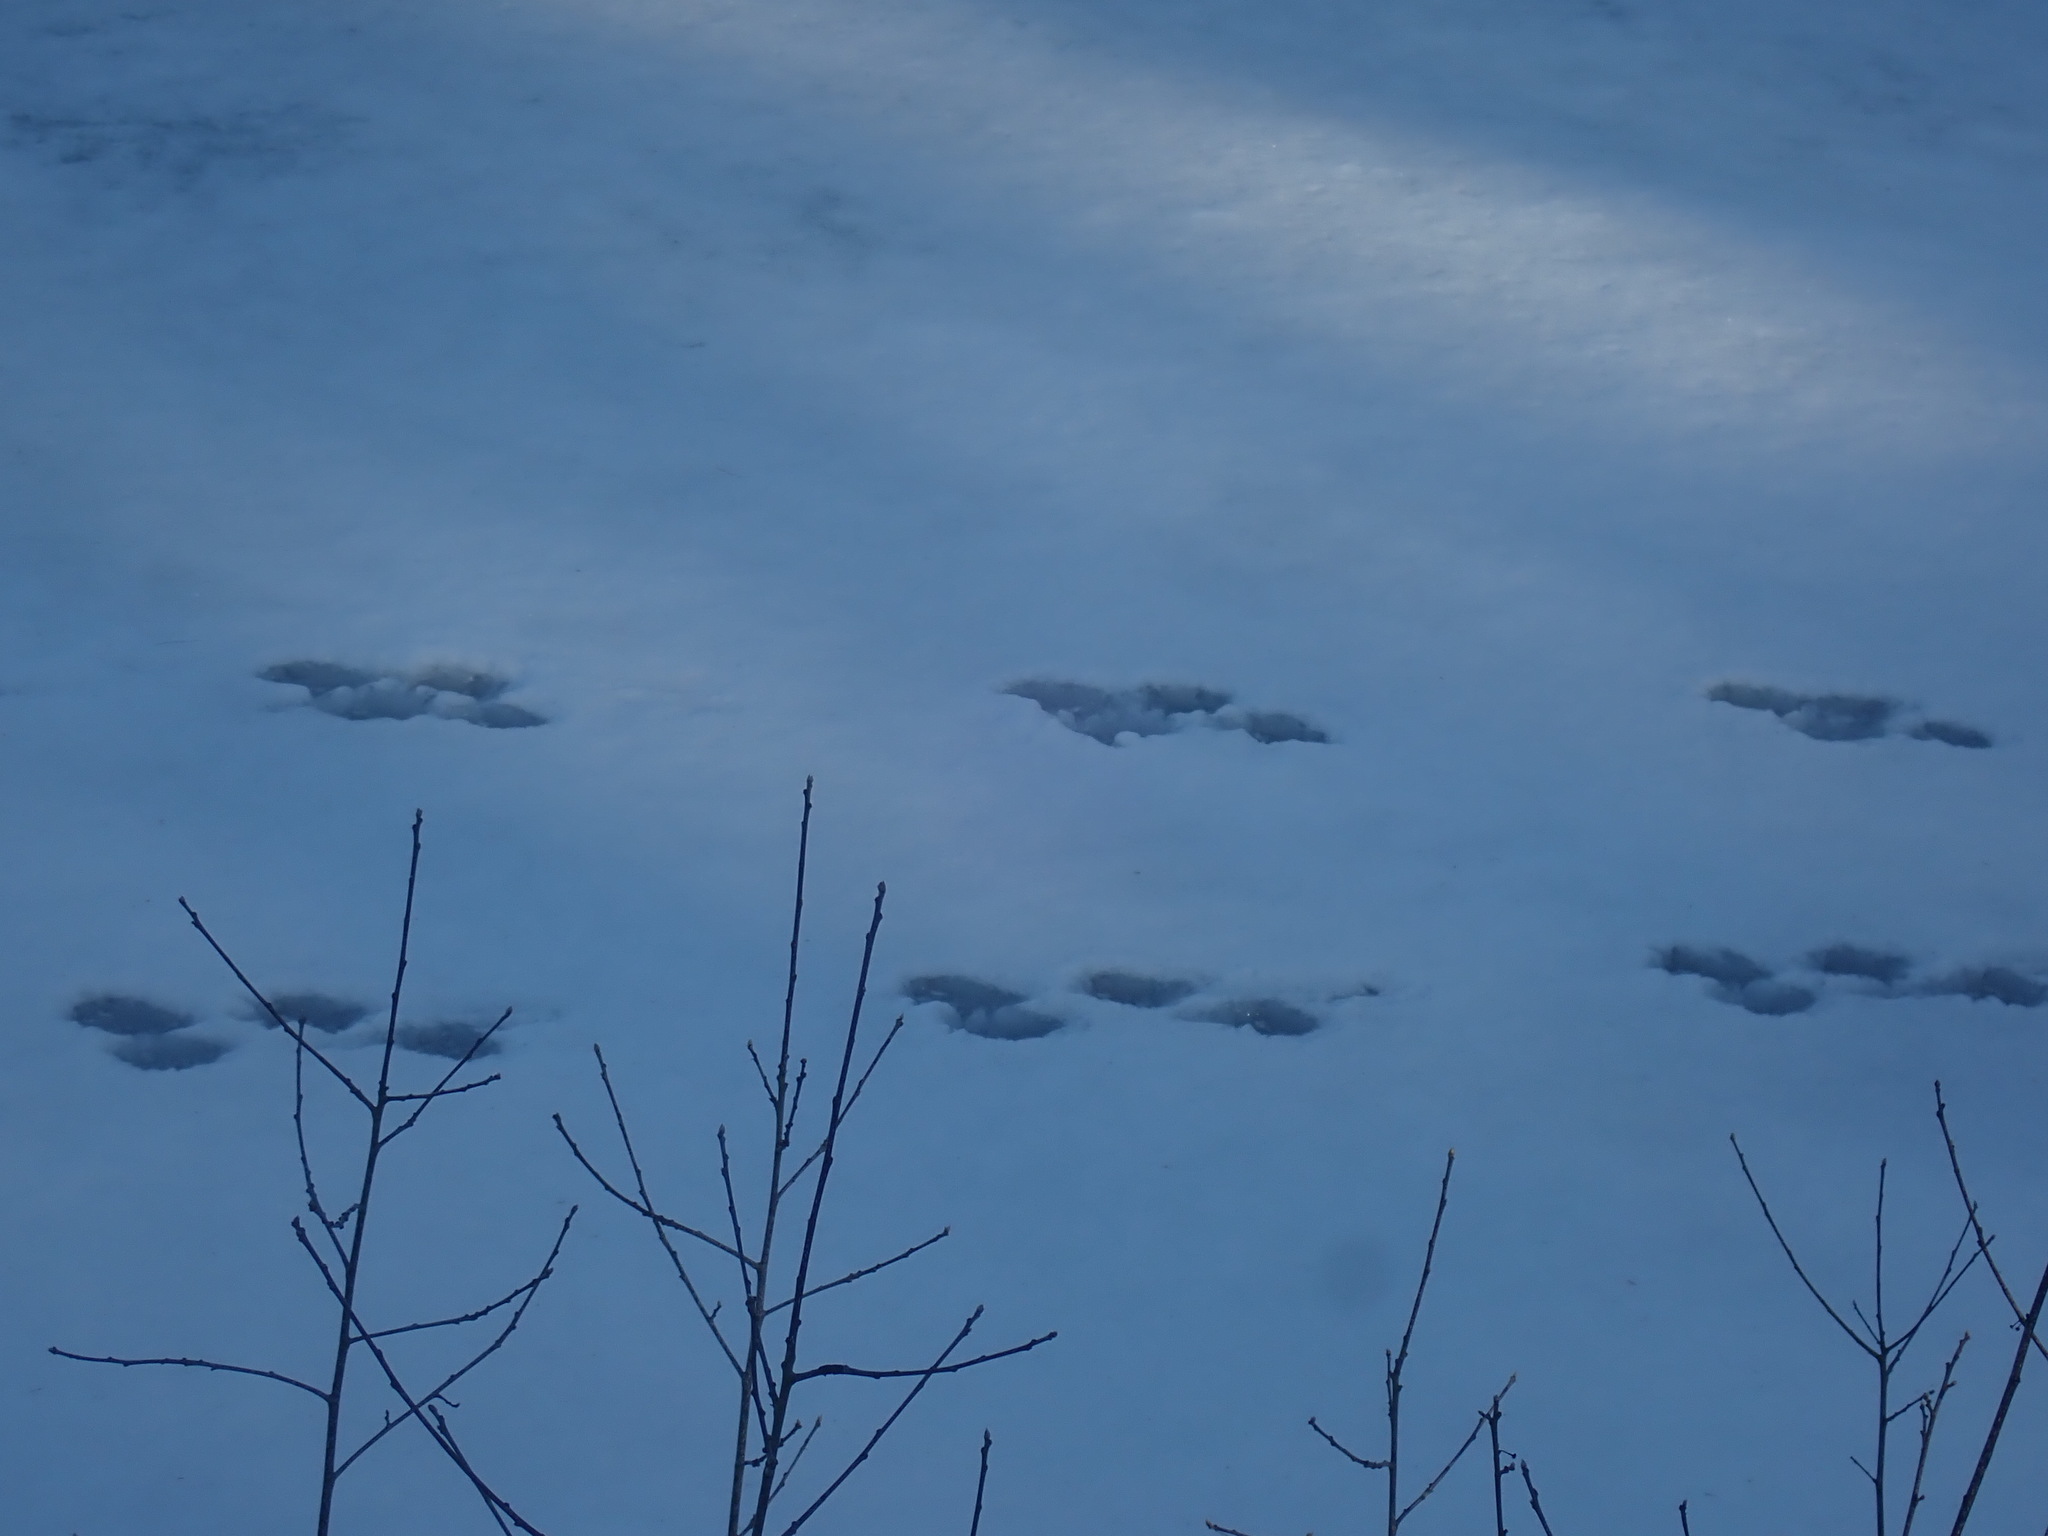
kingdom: Animalia
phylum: Chordata
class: Mammalia
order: Carnivora
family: Mustelidae
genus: Lontra
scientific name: Lontra canadensis
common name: North american river otter
